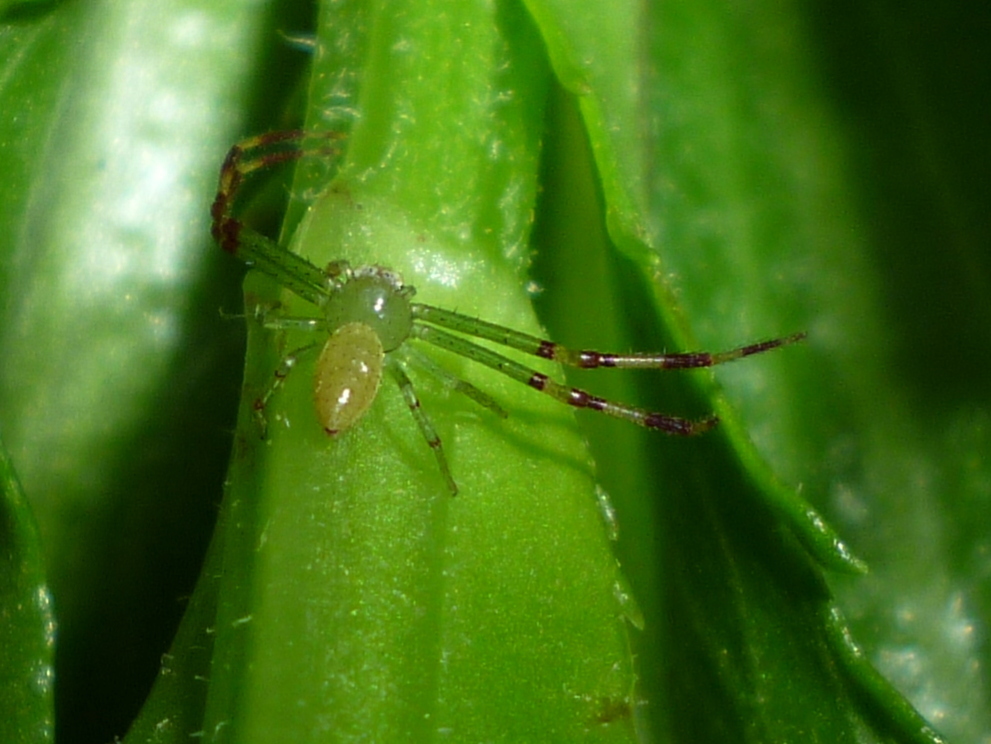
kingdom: Animalia
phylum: Arthropoda
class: Arachnida
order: Araneae
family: Thomisidae
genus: Misumessus
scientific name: Misumessus oblongus
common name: American green crab spider
